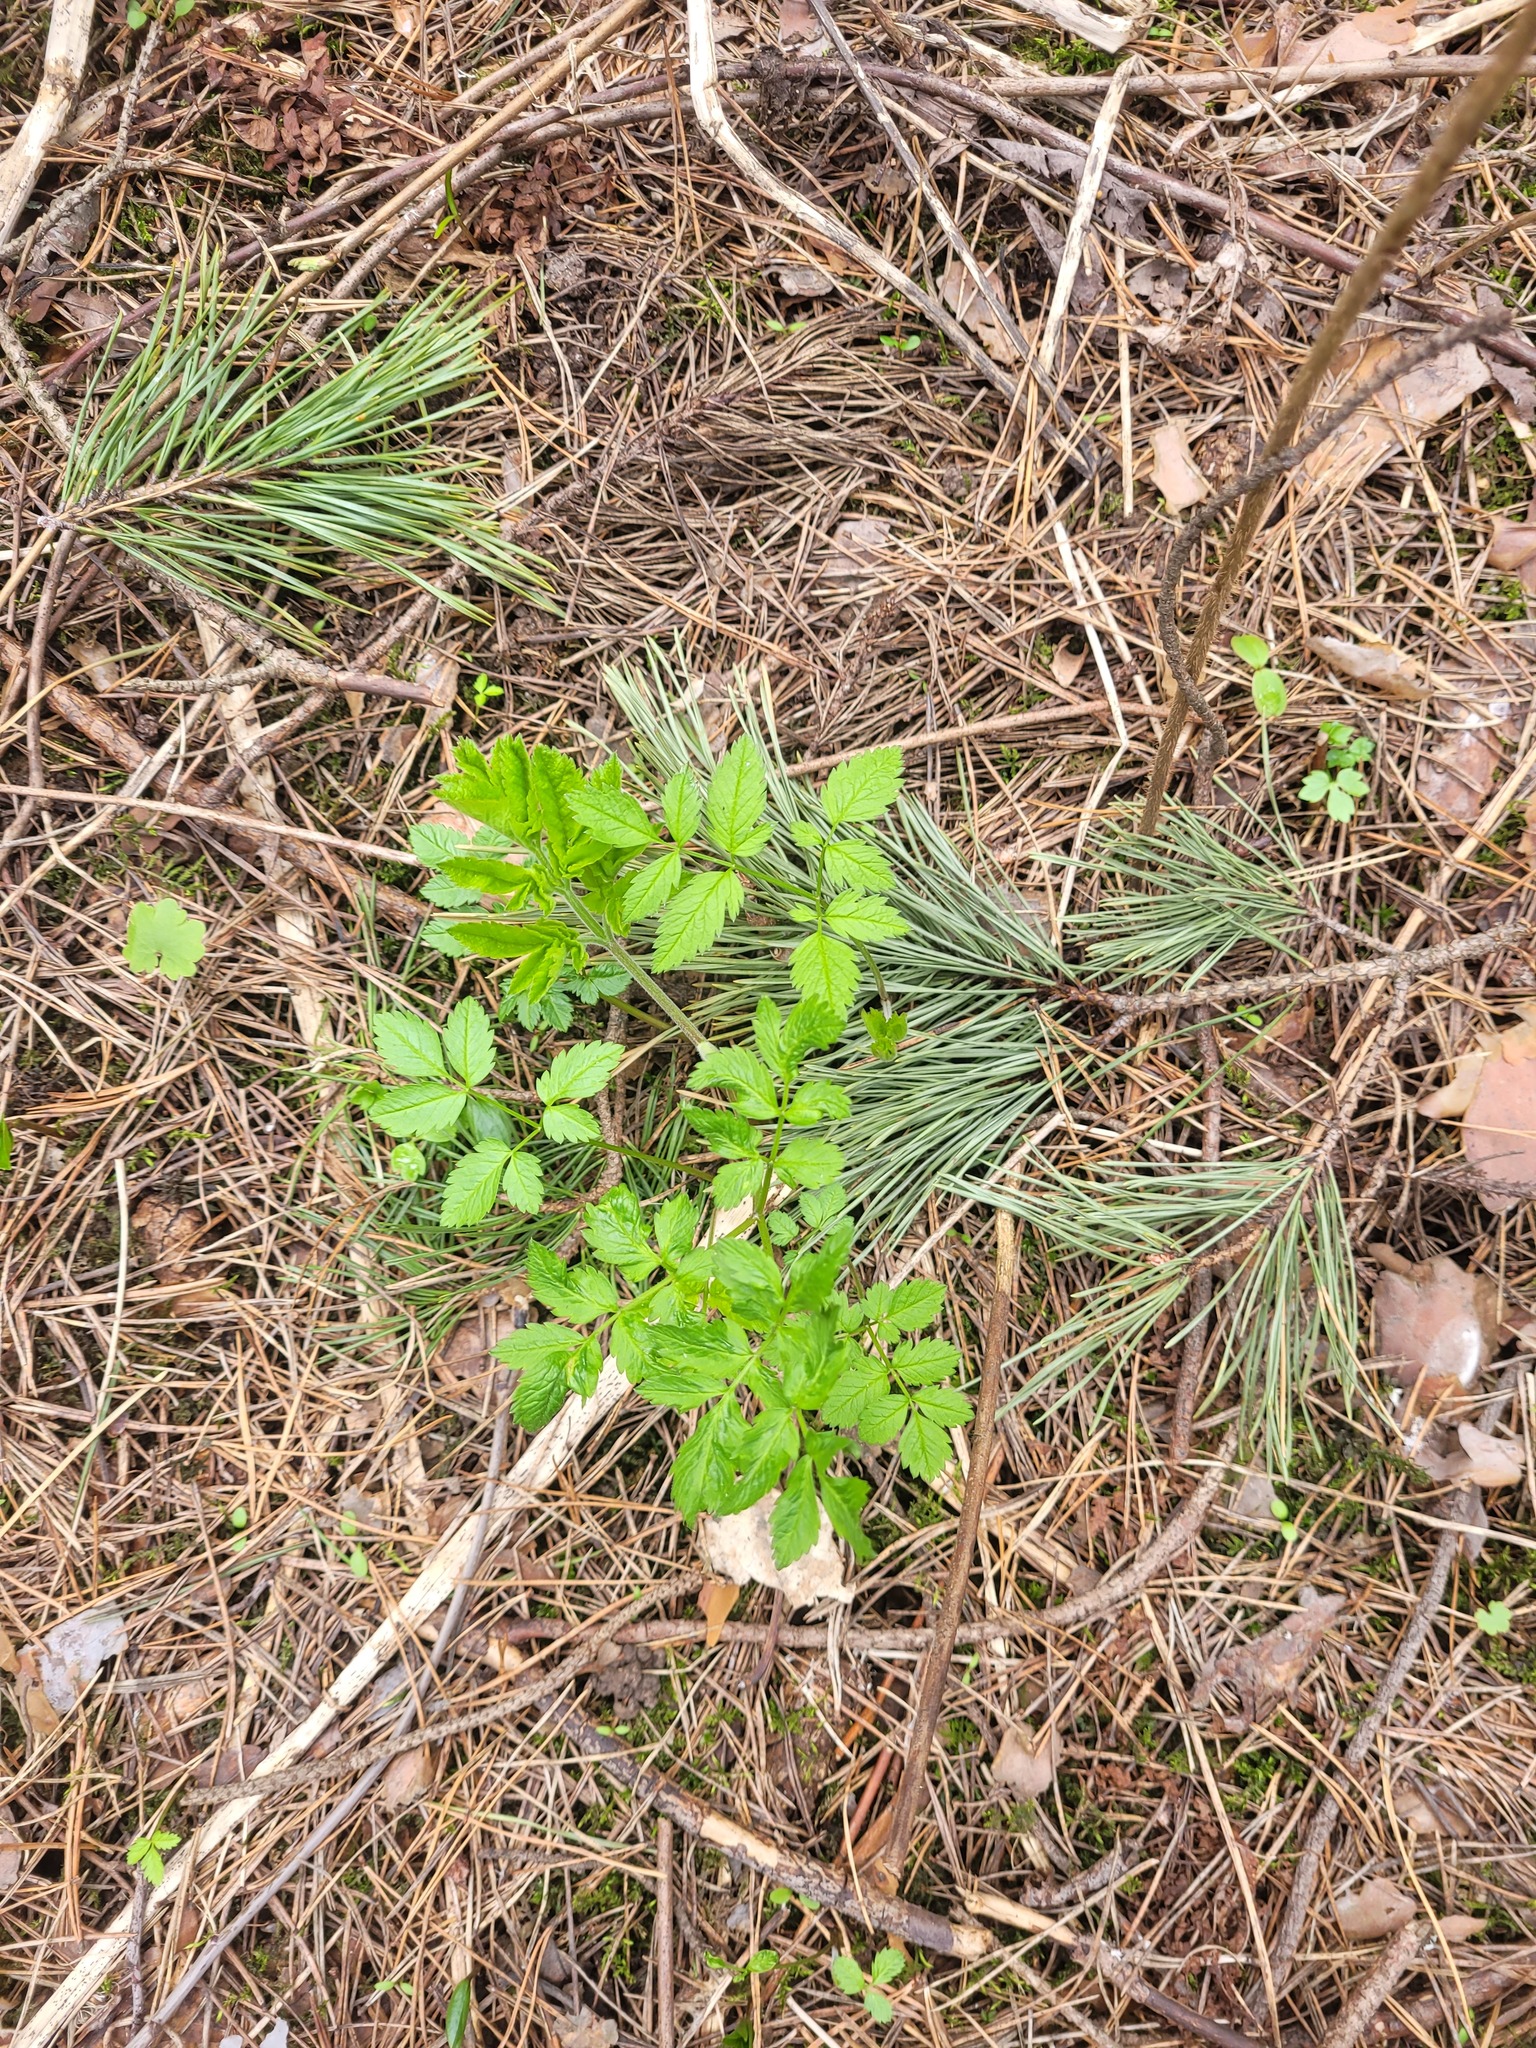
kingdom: Plantae
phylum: Tracheophyta
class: Magnoliopsida
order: Apiales
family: Apiaceae
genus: Chaerophyllum
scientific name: Chaerophyllum aromaticum
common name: Broadleaf chervil
